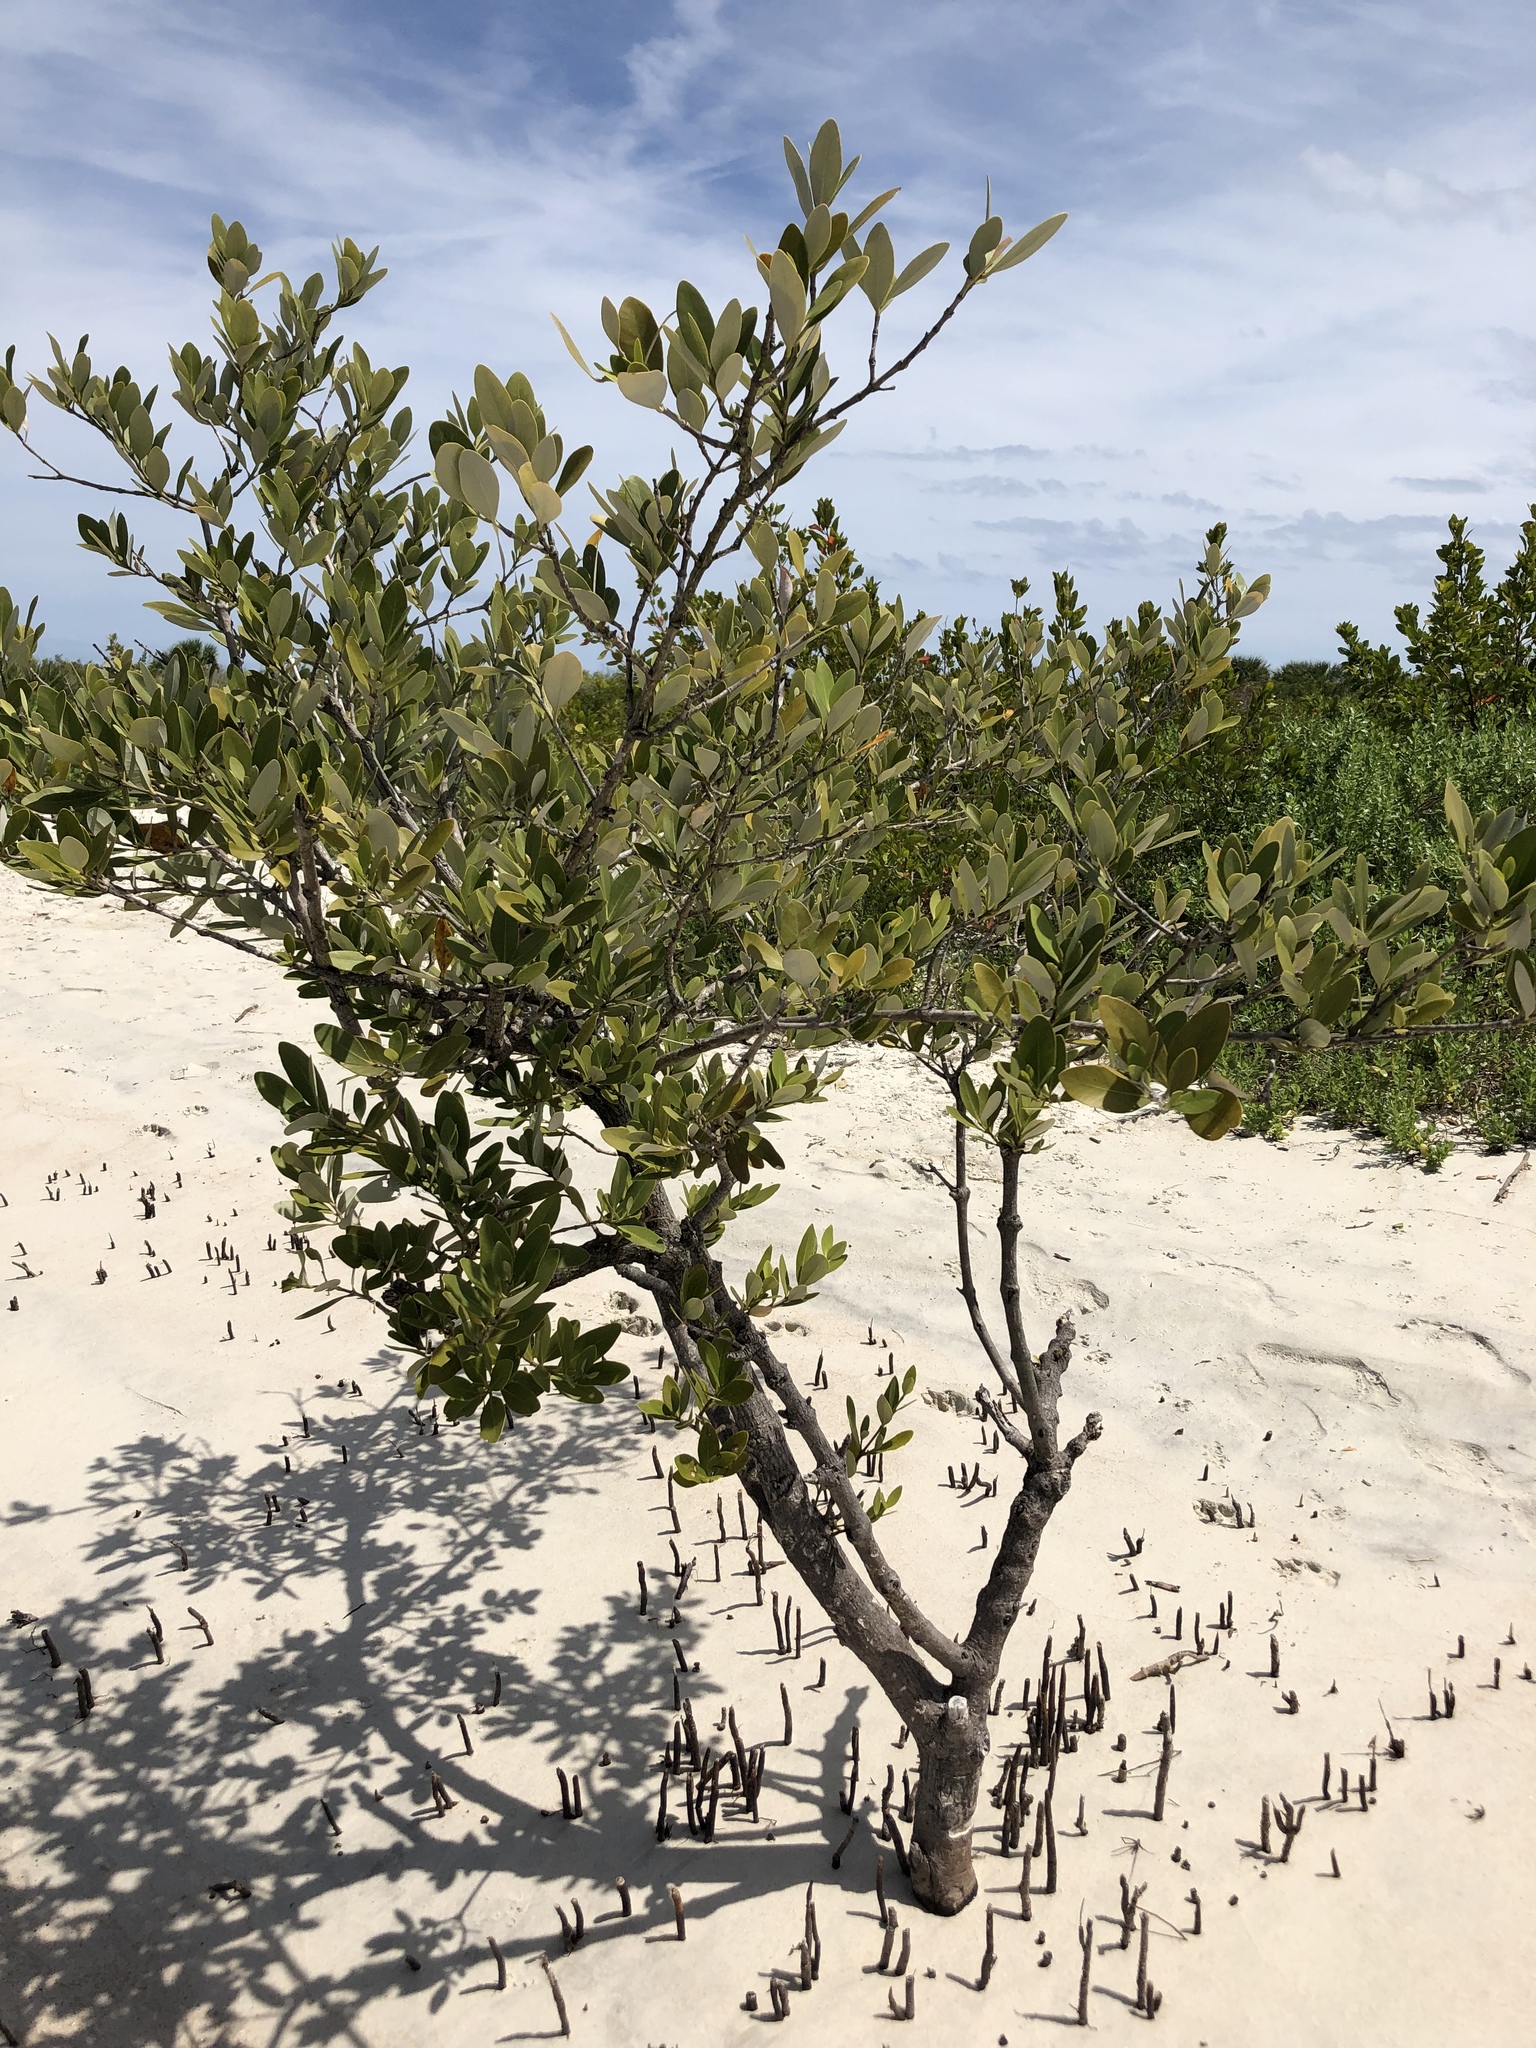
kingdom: Plantae
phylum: Tracheophyta
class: Magnoliopsida
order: Lamiales
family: Acanthaceae
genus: Avicennia
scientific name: Avicennia germinans
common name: Black mangrove
